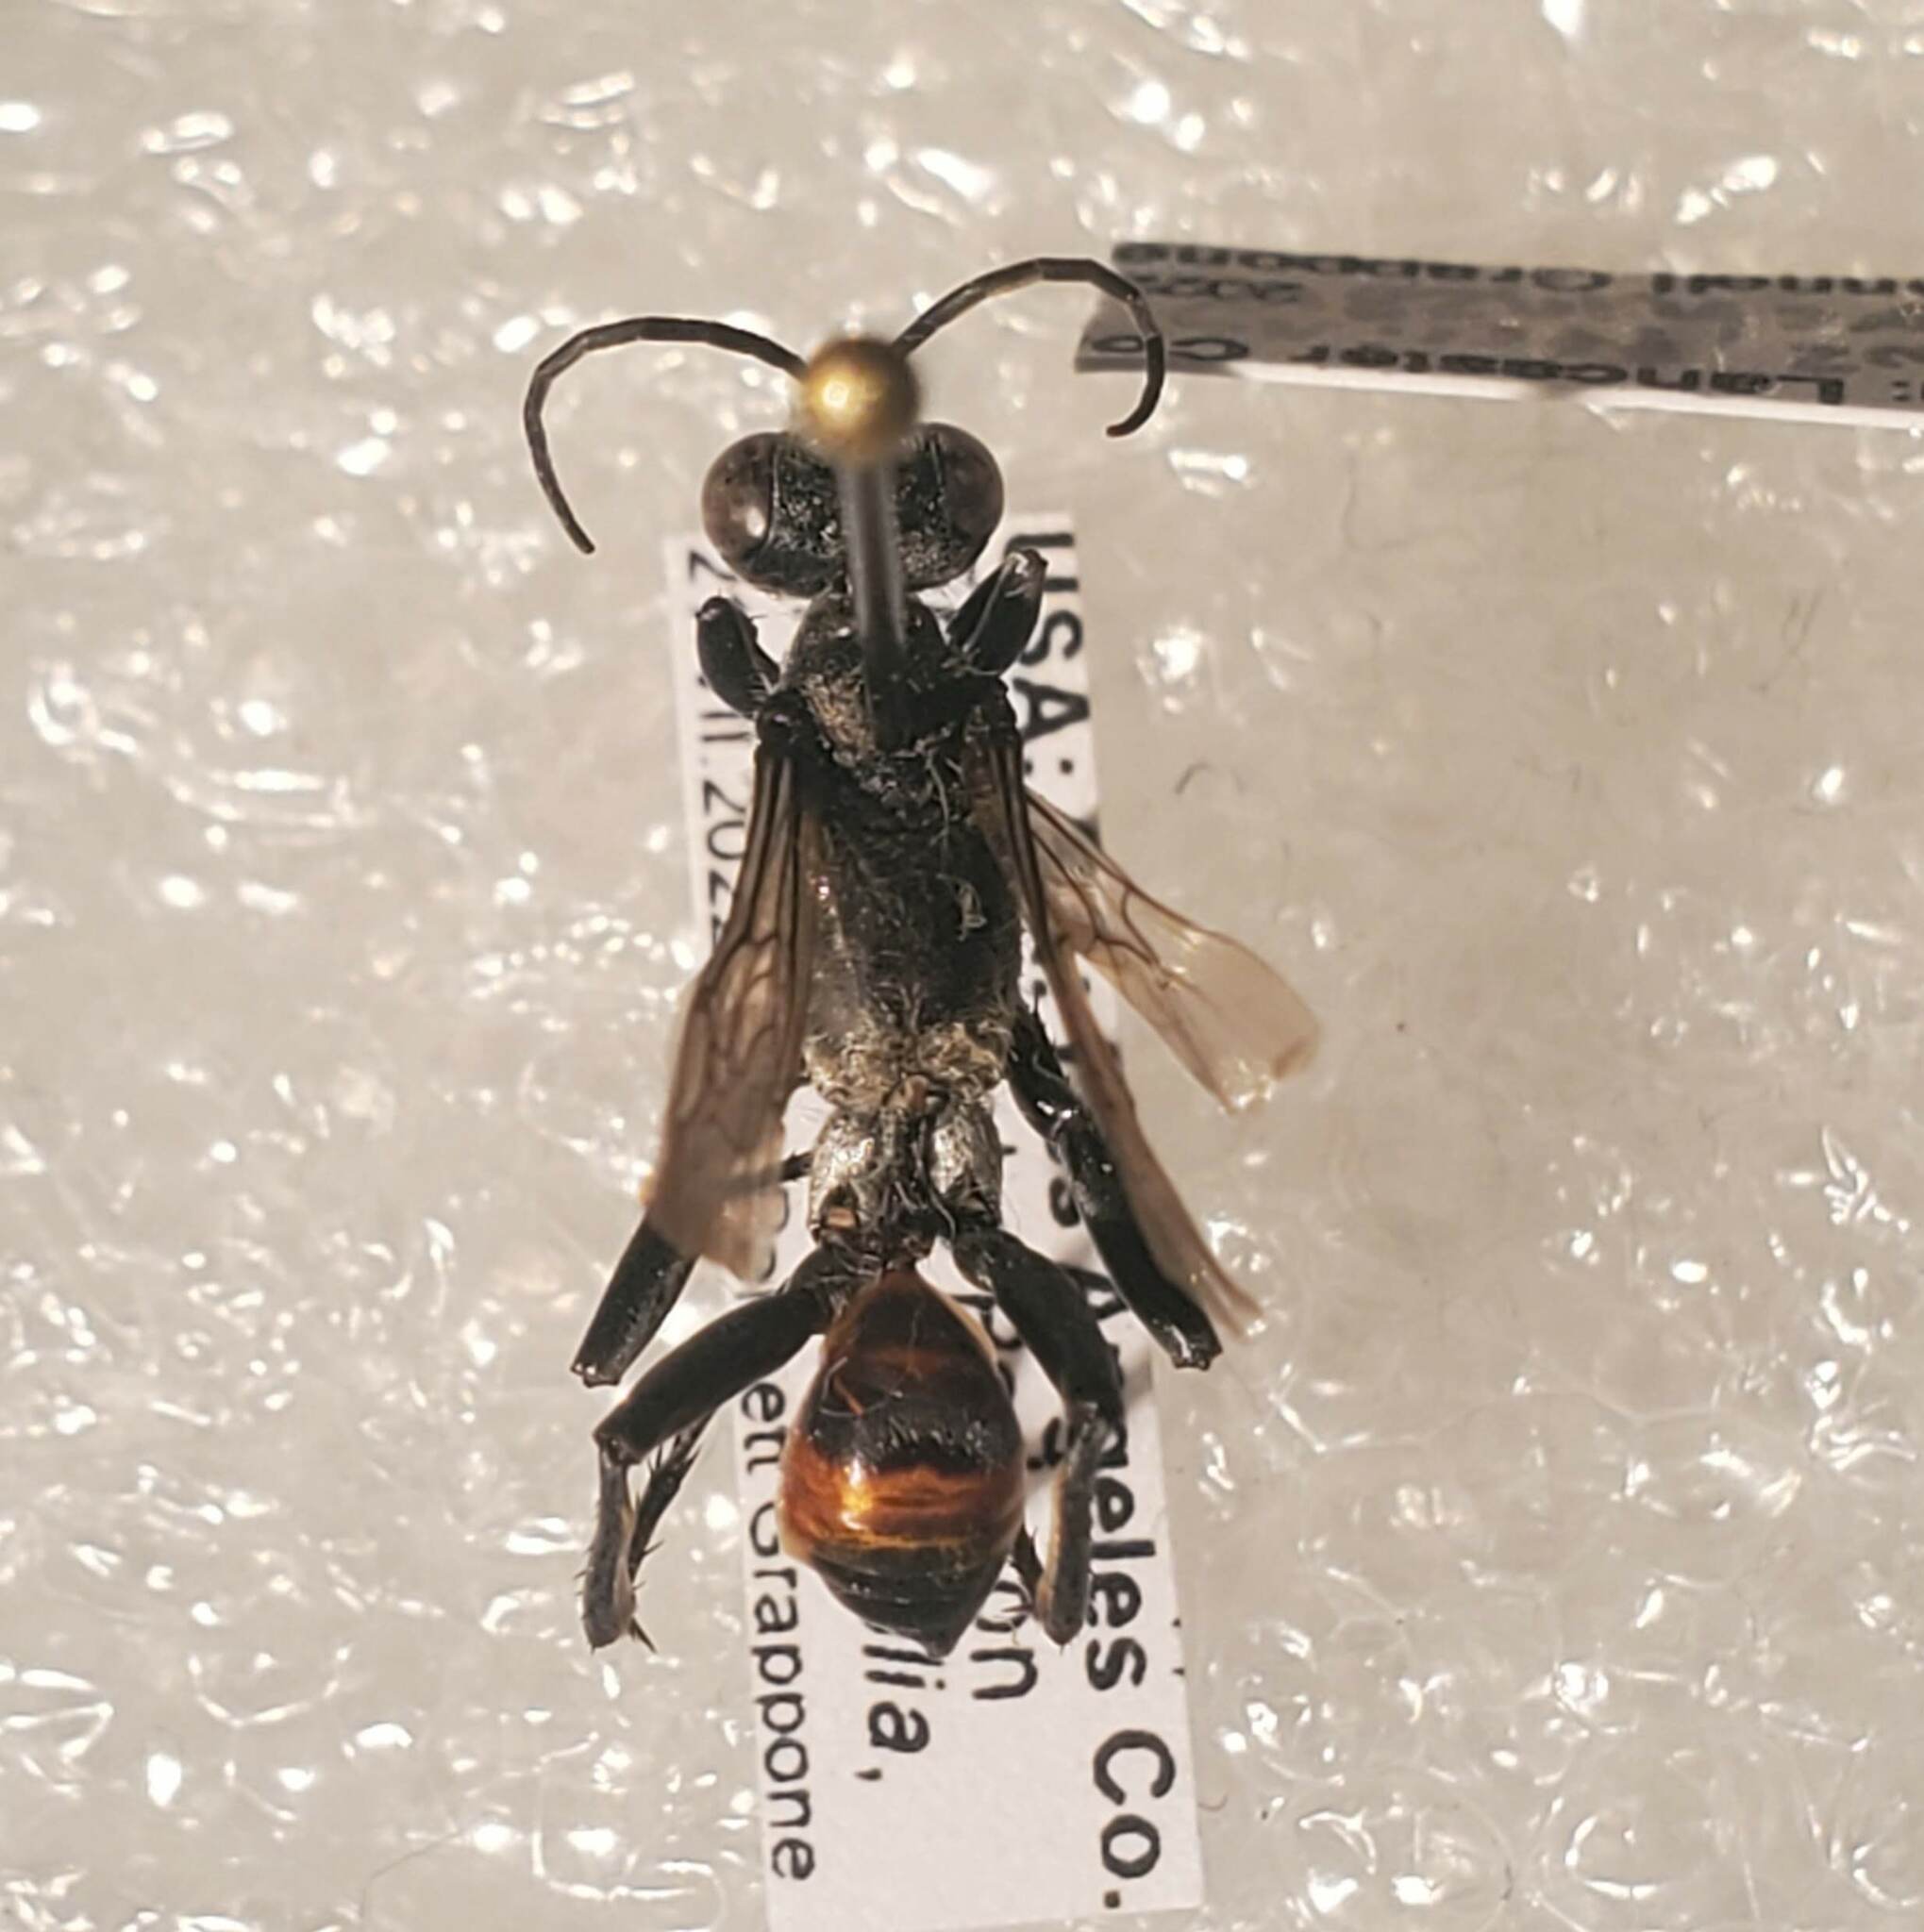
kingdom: Animalia
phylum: Arthropoda
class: Insecta
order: Hymenoptera
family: Sphecidae
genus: Prionyx
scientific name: Prionyx parkeri
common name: Parker's thread-waisted wasp
